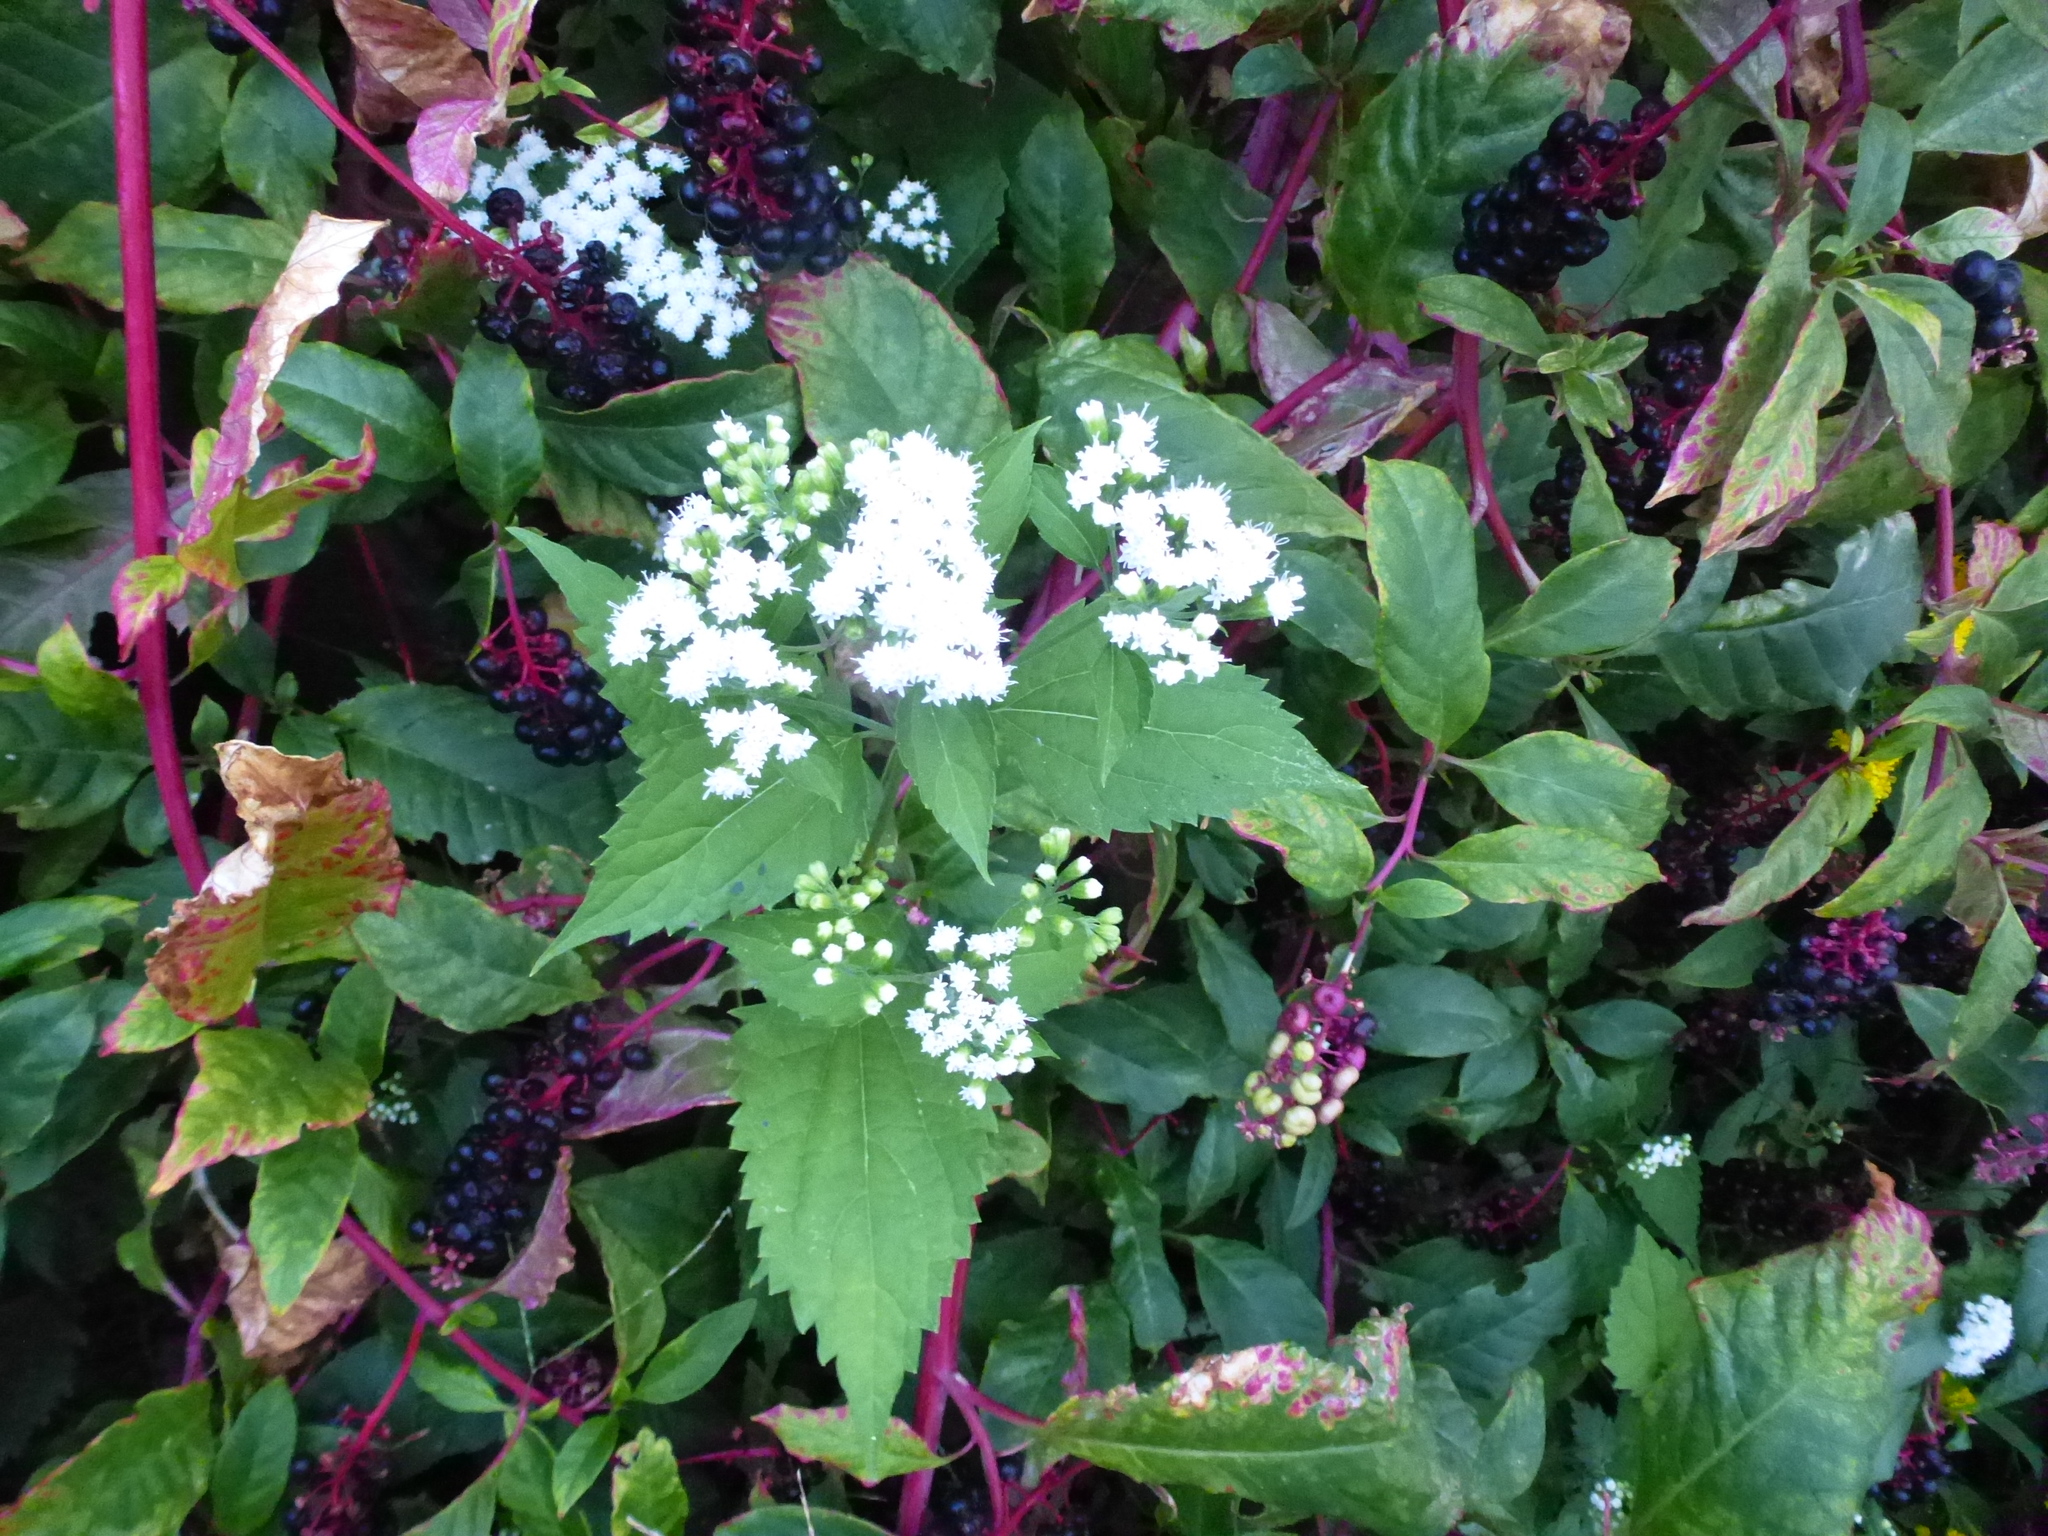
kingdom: Plantae
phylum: Tracheophyta
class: Magnoliopsida
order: Asterales
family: Asteraceae
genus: Ageratina
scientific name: Ageratina altissima
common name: White snakeroot
